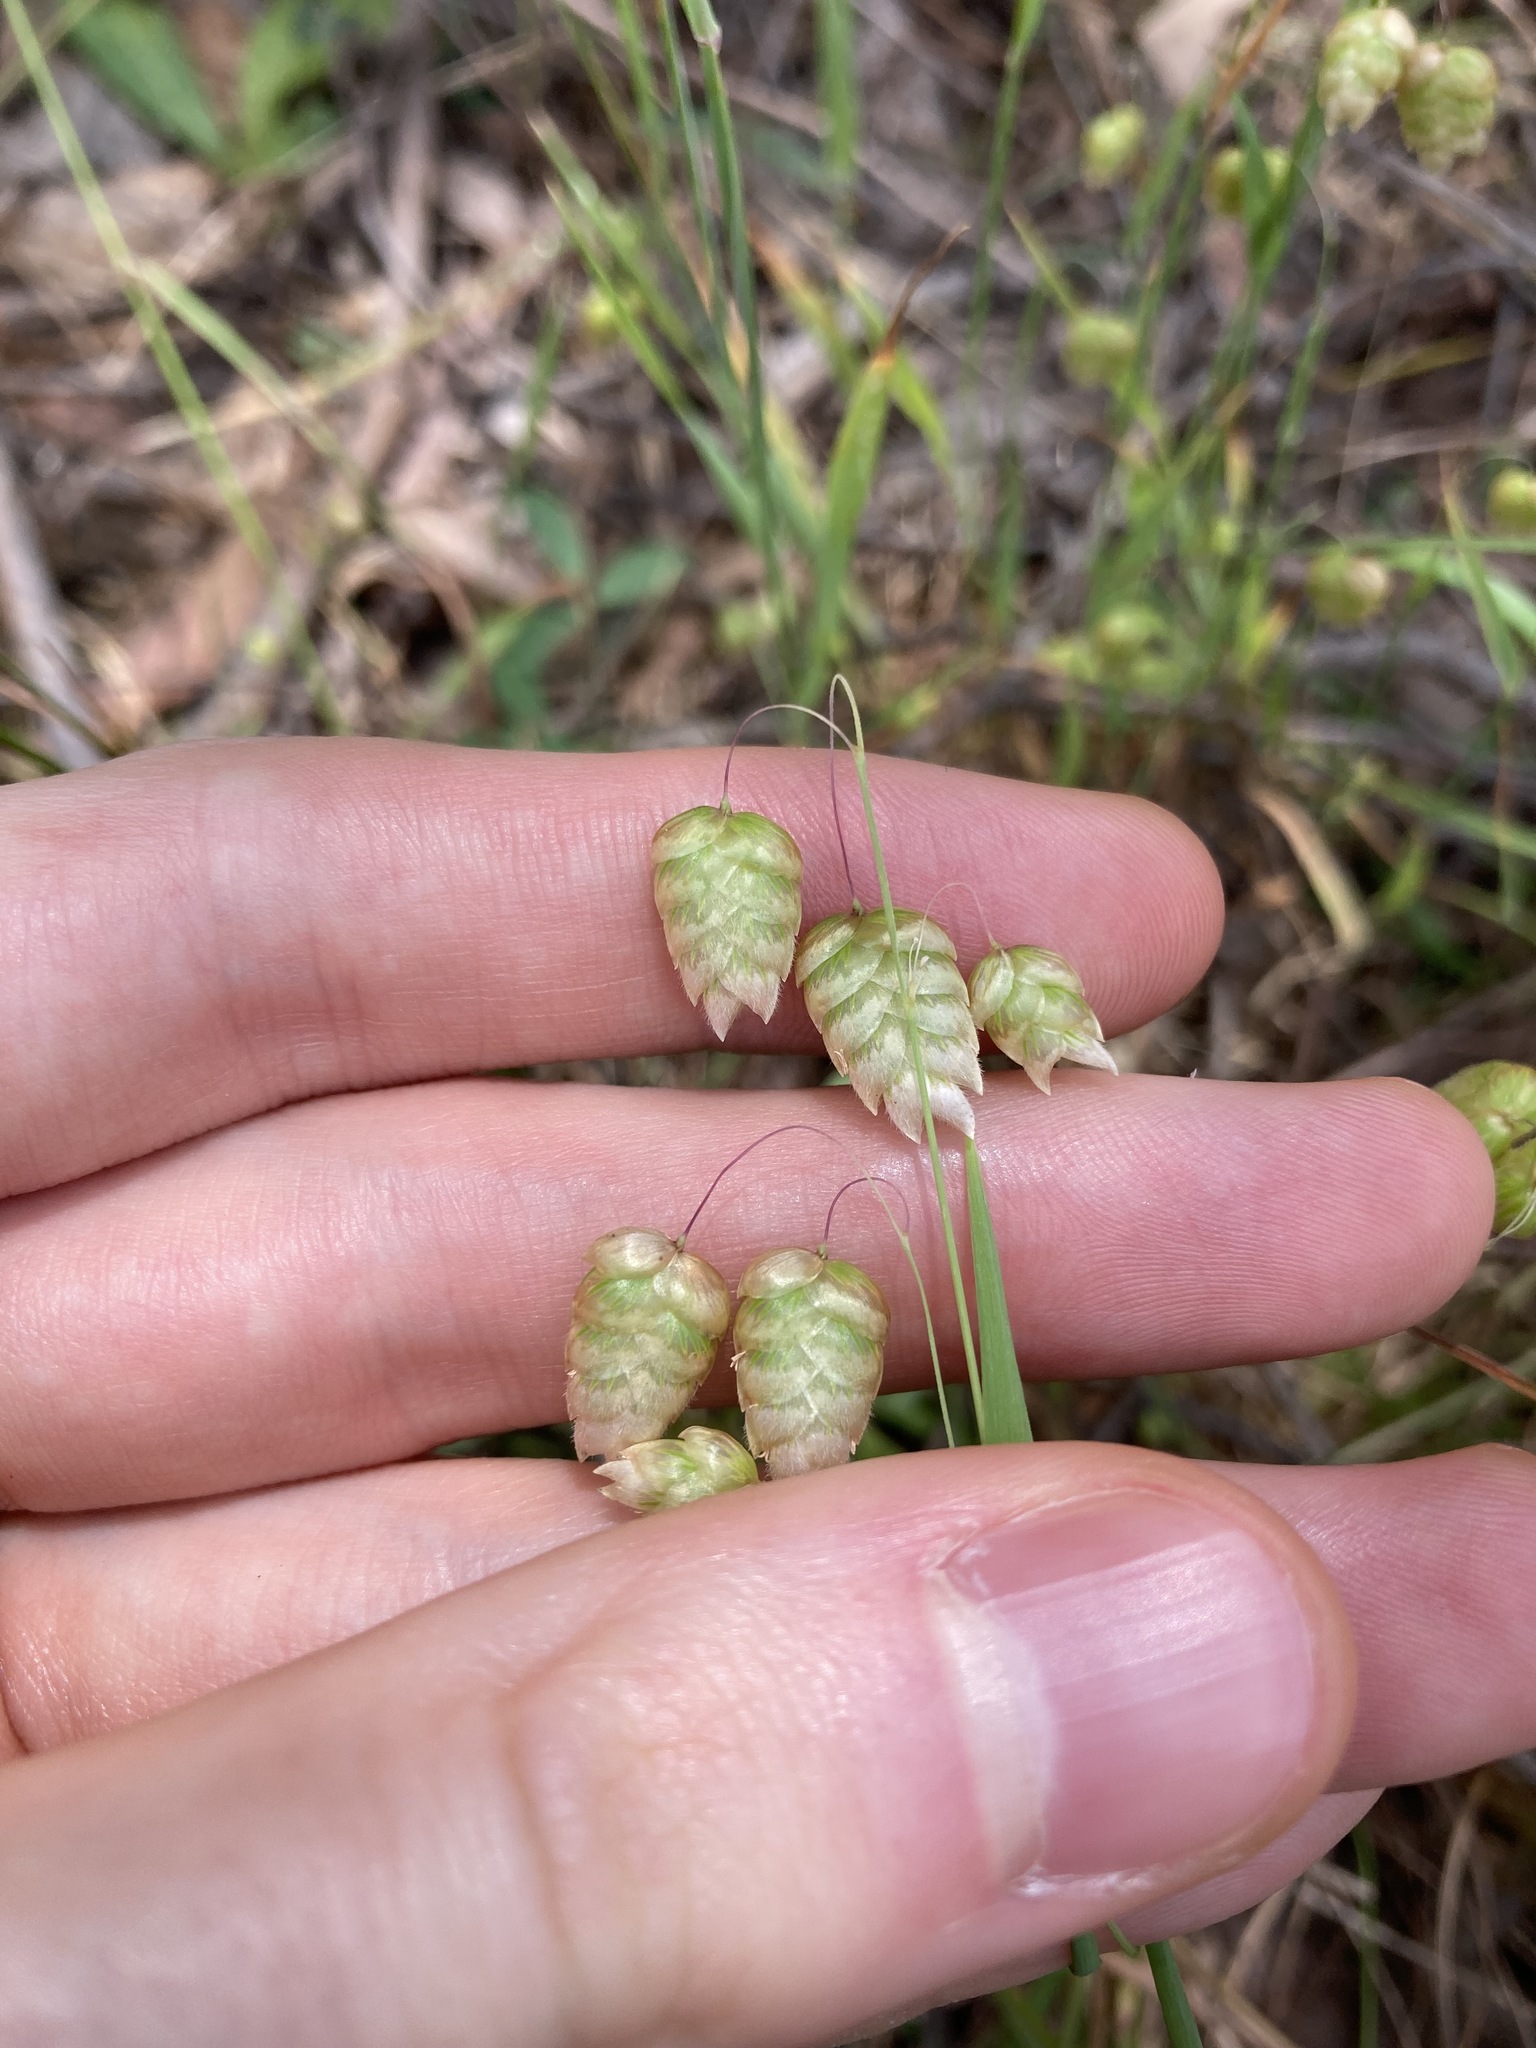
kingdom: Plantae
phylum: Tracheophyta
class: Liliopsida
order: Poales
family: Poaceae
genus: Briza
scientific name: Briza maxima
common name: Big quakinggrass
